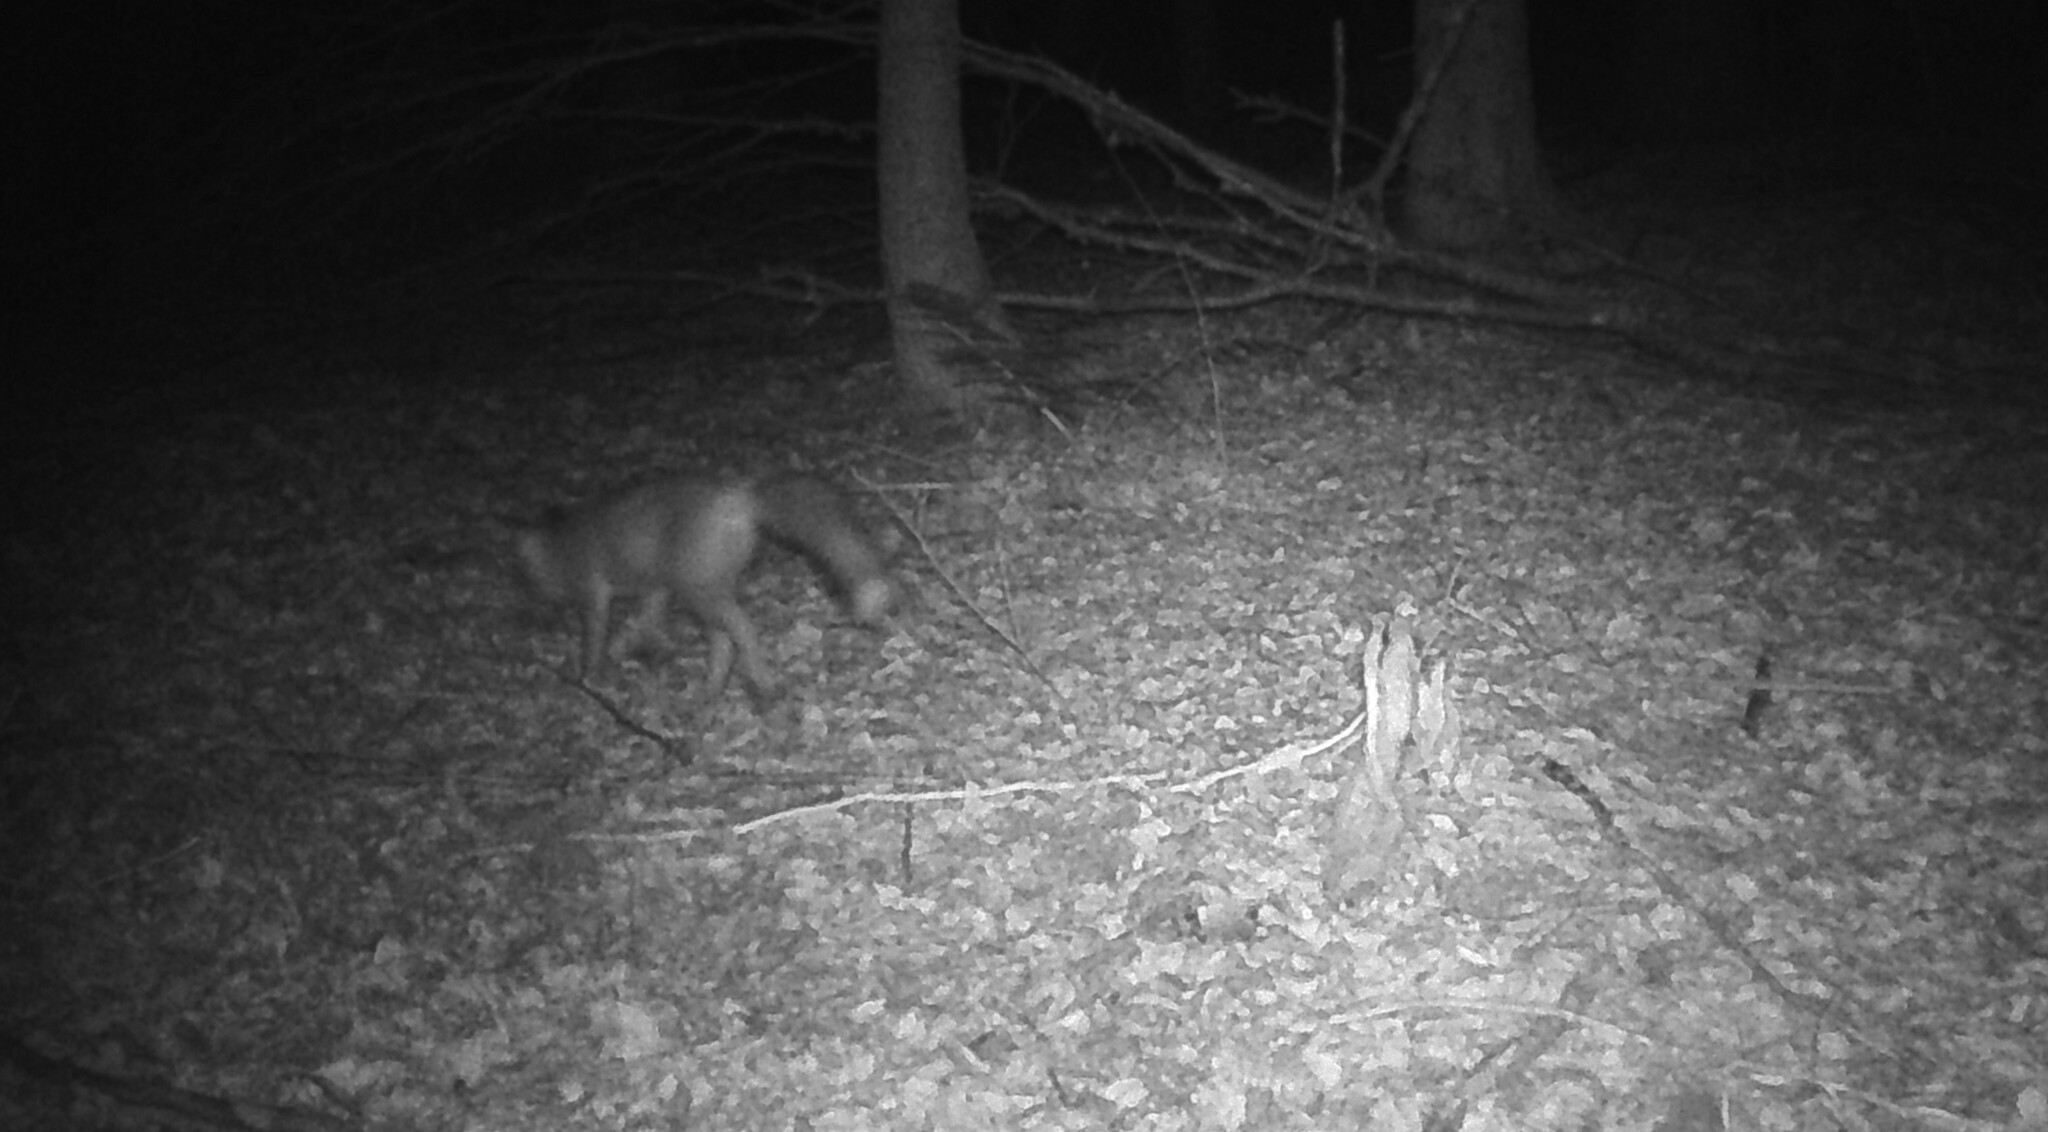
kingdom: Animalia
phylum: Chordata
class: Mammalia
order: Carnivora
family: Canidae
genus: Vulpes
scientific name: Vulpes vulpes
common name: Red fox
